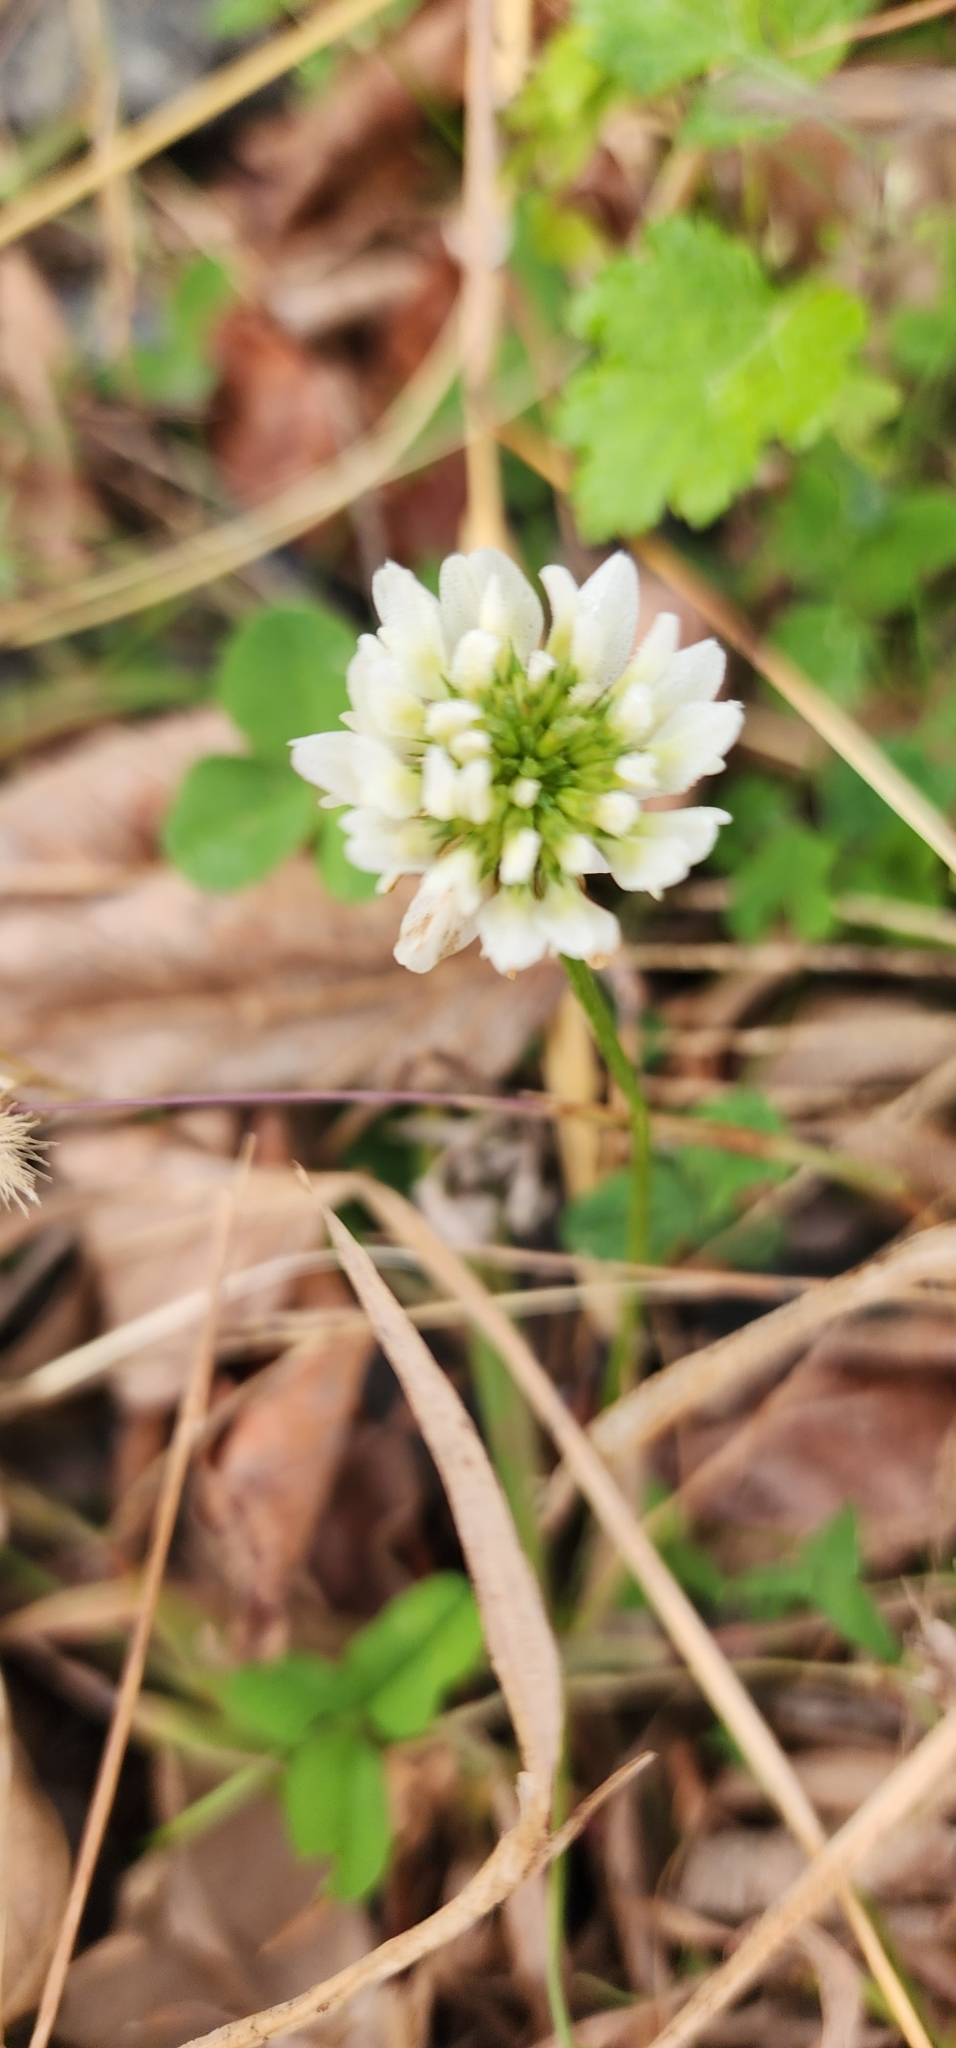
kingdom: Plantae
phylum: Tracheophyta
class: Magnoliopsida
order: Fabales
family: Fabaceae
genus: Trifolium
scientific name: Trifolium repens
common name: White clover
